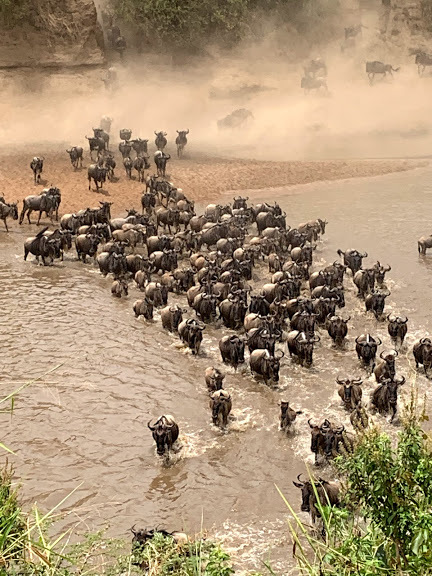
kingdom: Animalia
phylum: Chordata
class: Mammalia
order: Artiodactyla
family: Bovidae
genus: Connochaetes
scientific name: Connochaetes taurinus
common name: Blue wildebeest
